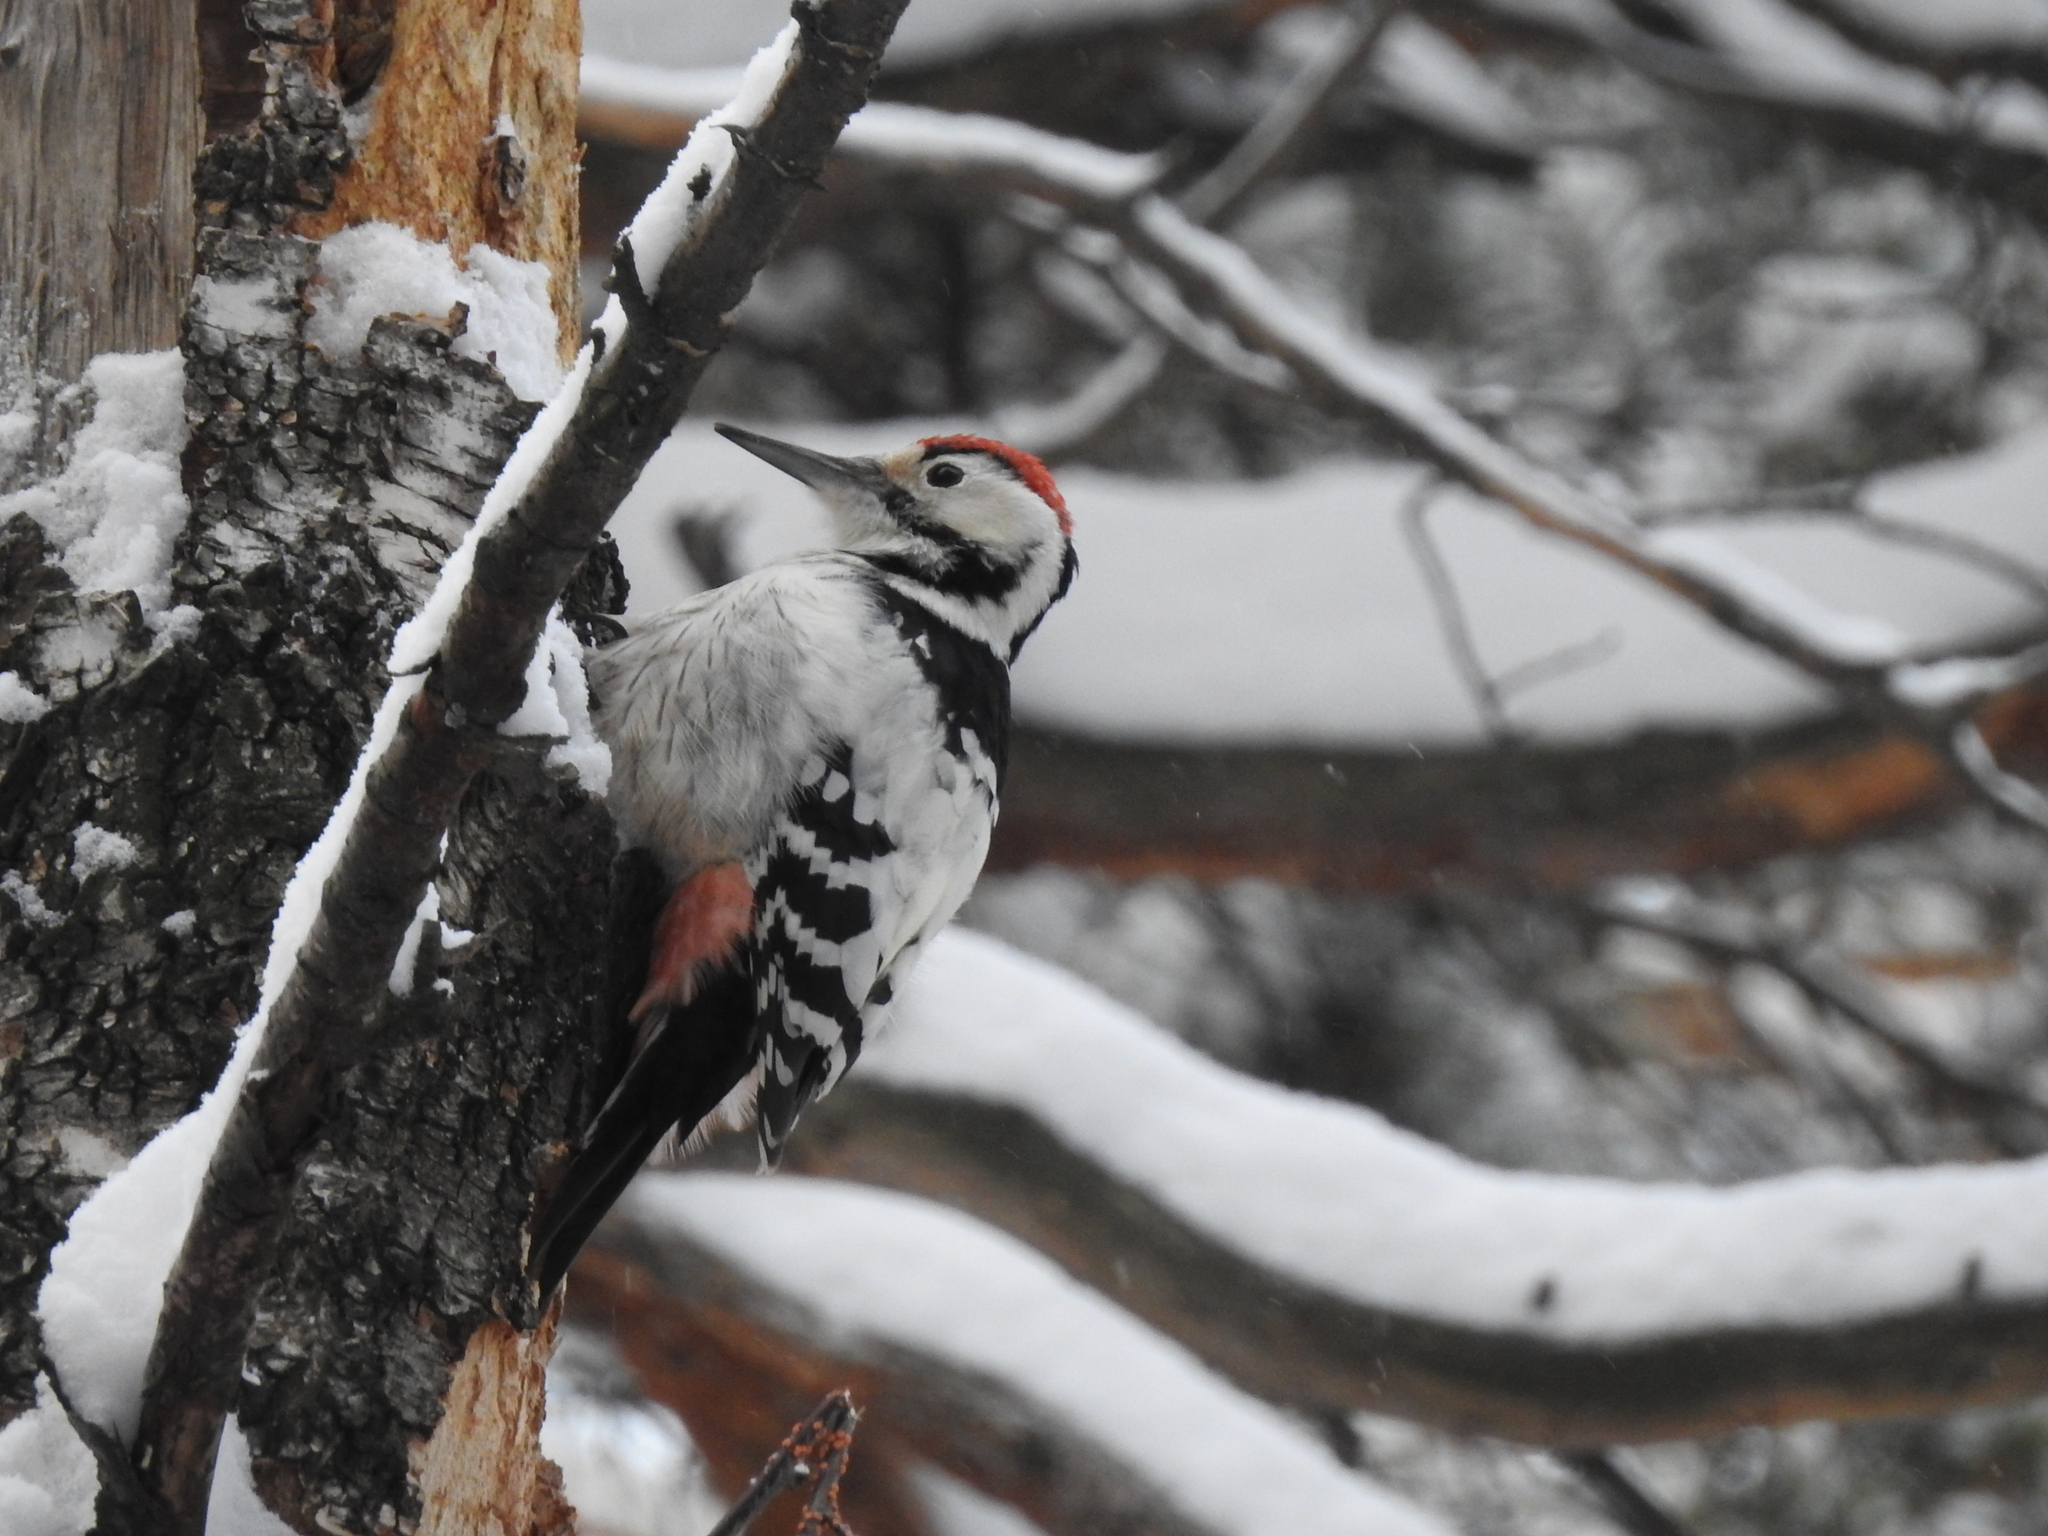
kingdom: Animalia
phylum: Chordata
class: Aves
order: Piciformes
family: Picidae
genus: Dendrocopos
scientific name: Dendrocopos leucotos
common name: White-backed woodpecker
